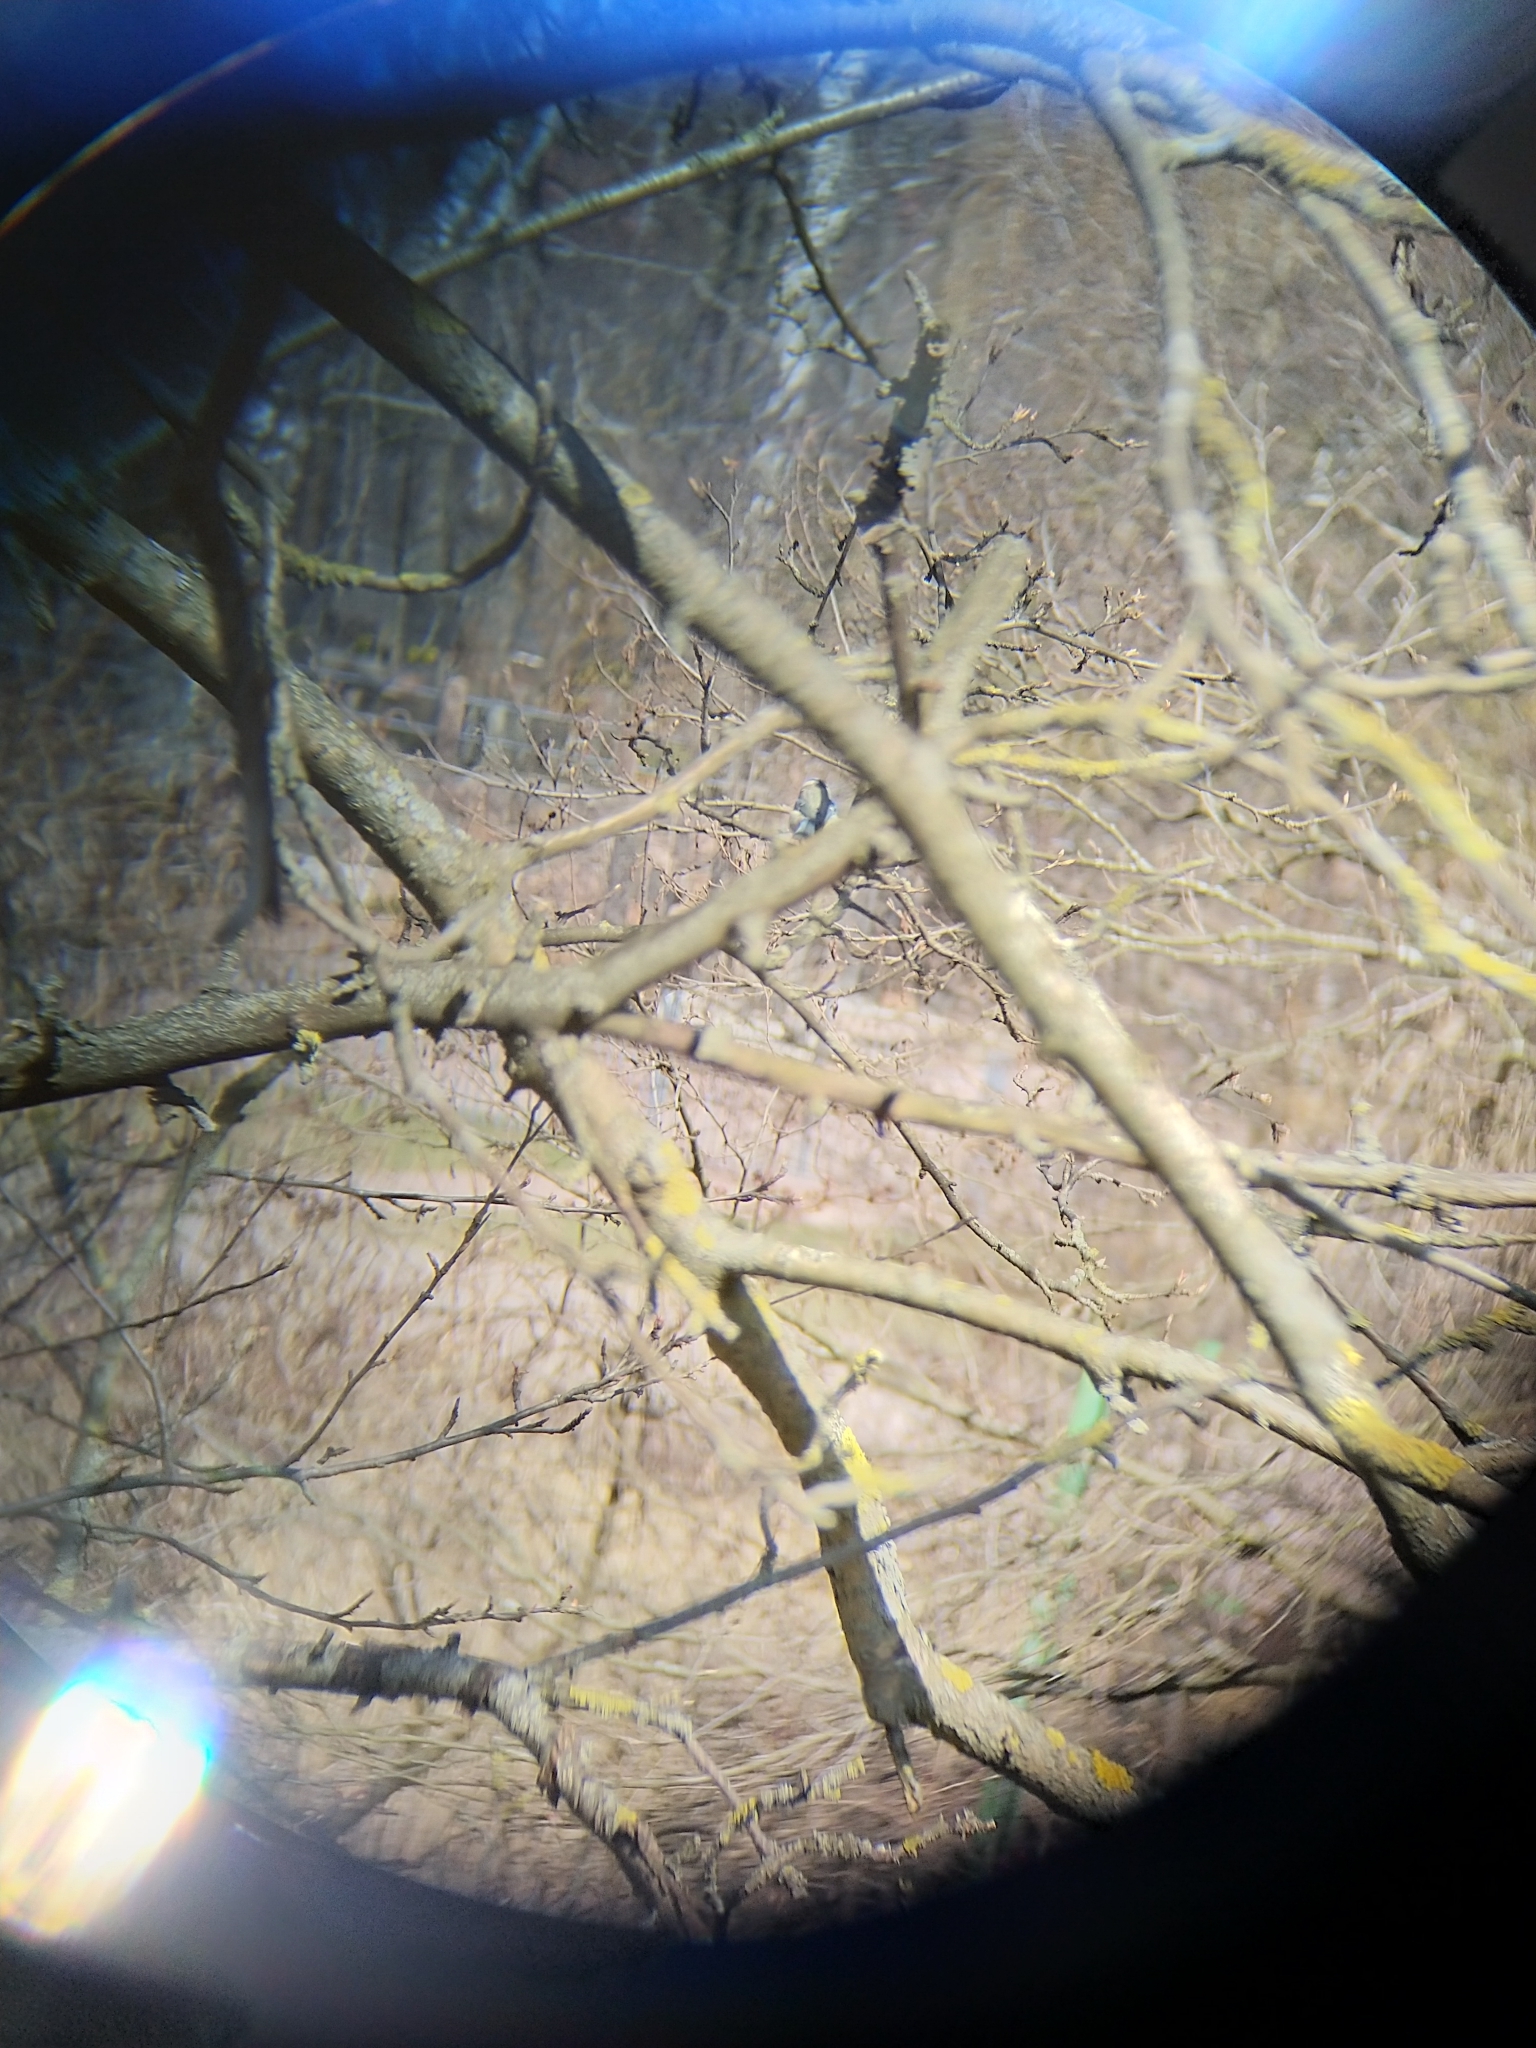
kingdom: Animalia
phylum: Chordata
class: Aves
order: Passeriformes
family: Paridae
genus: Cyanistes
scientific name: Cyanistes caeruleus
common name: Eurasian blue tit
